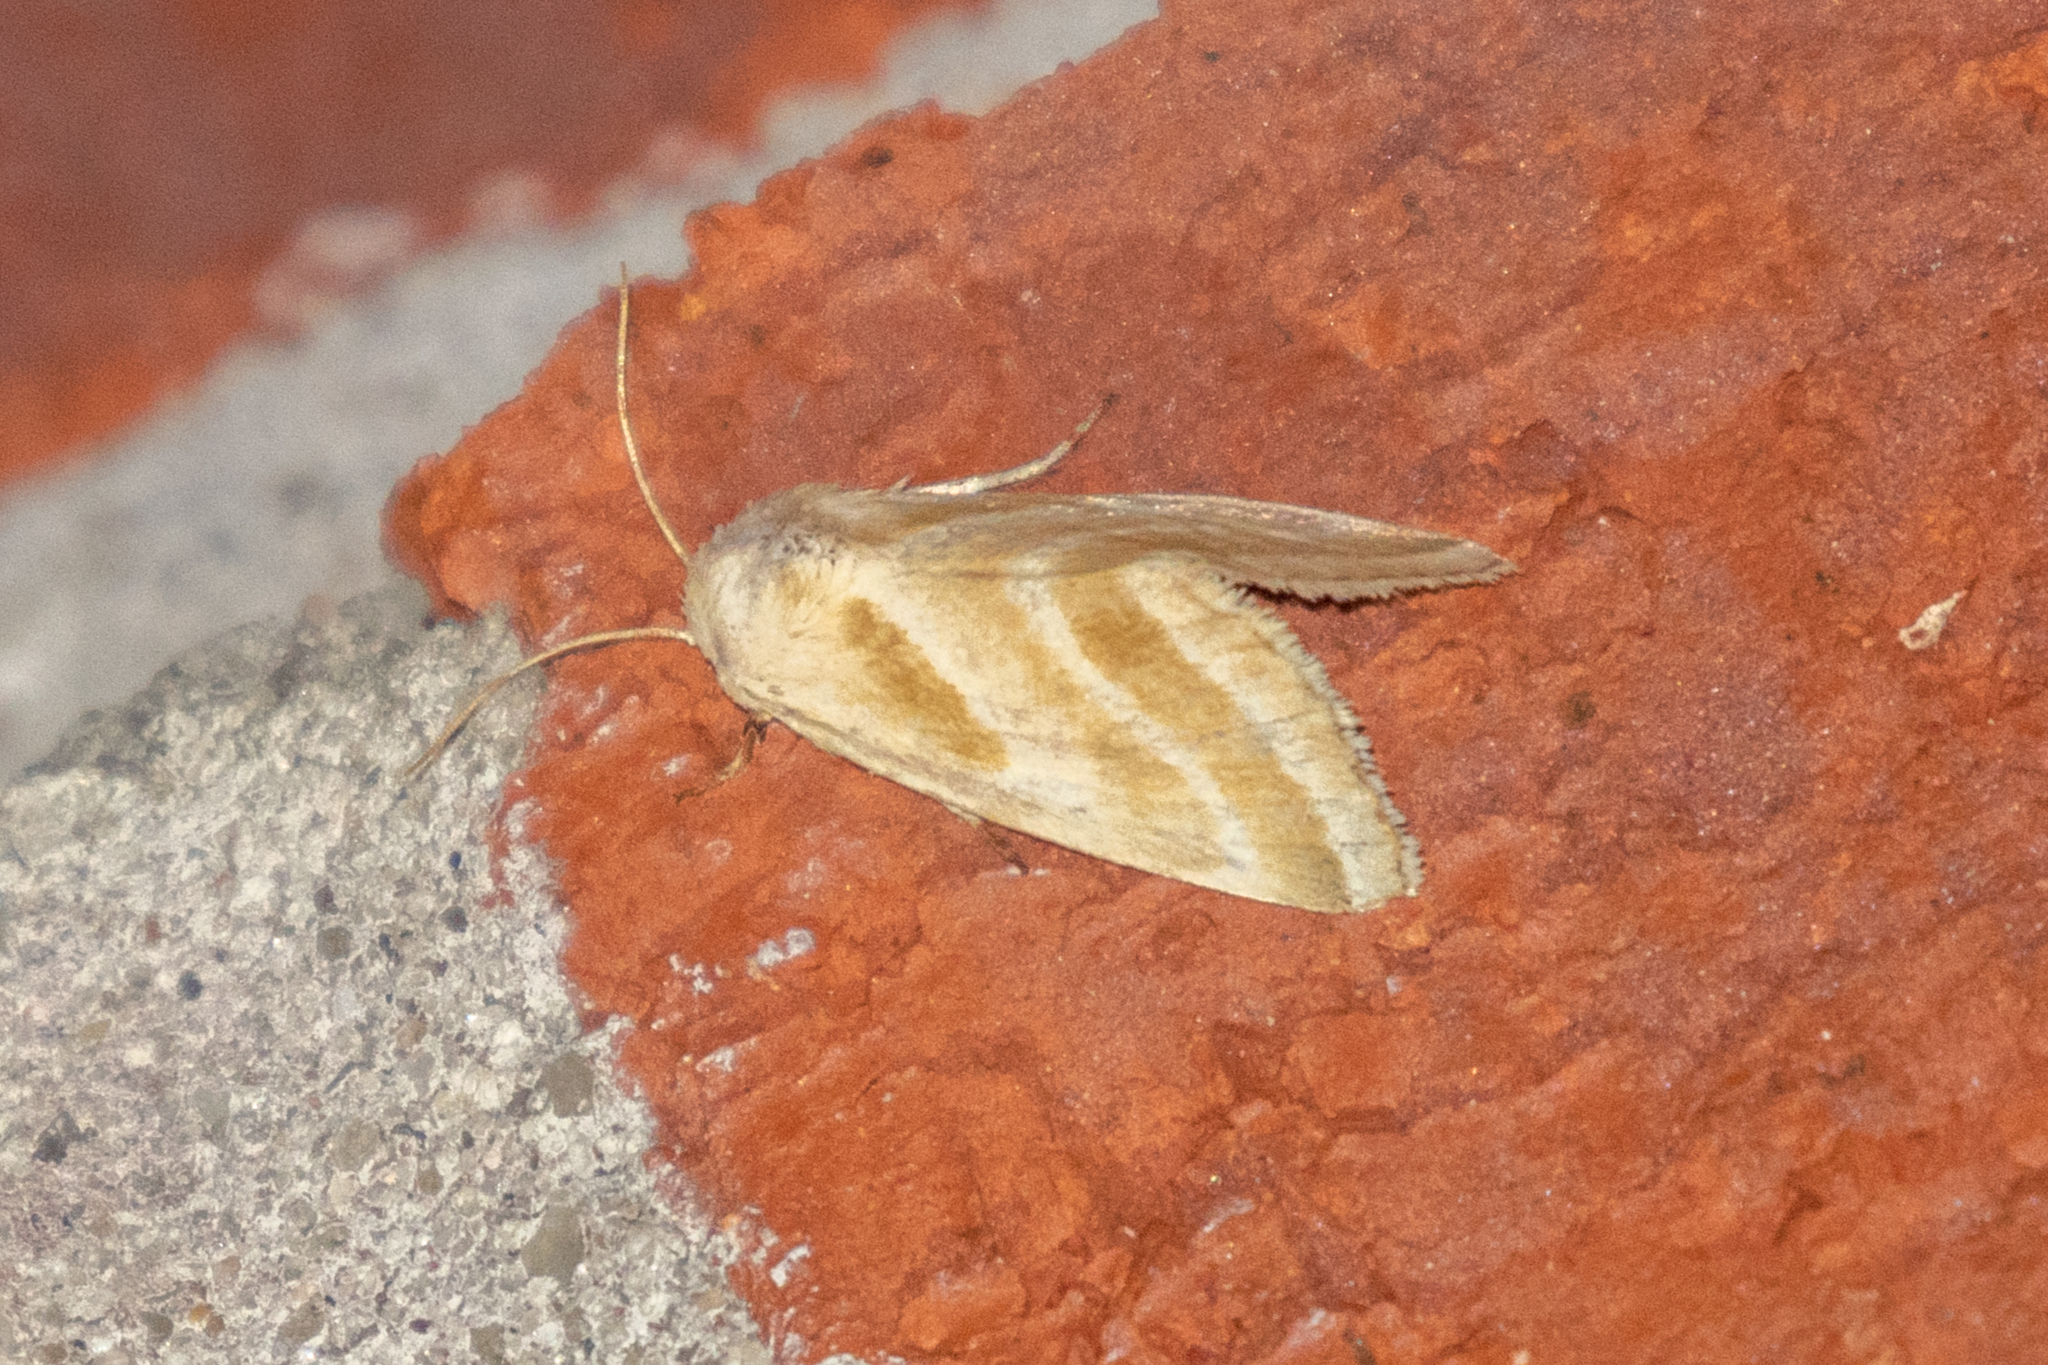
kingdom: Animalia
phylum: Arthropoda
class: Insecta
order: Lepidoptera
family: Noctuidae
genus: Schinia
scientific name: Schinia trifascia
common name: Three-lined flower moth
